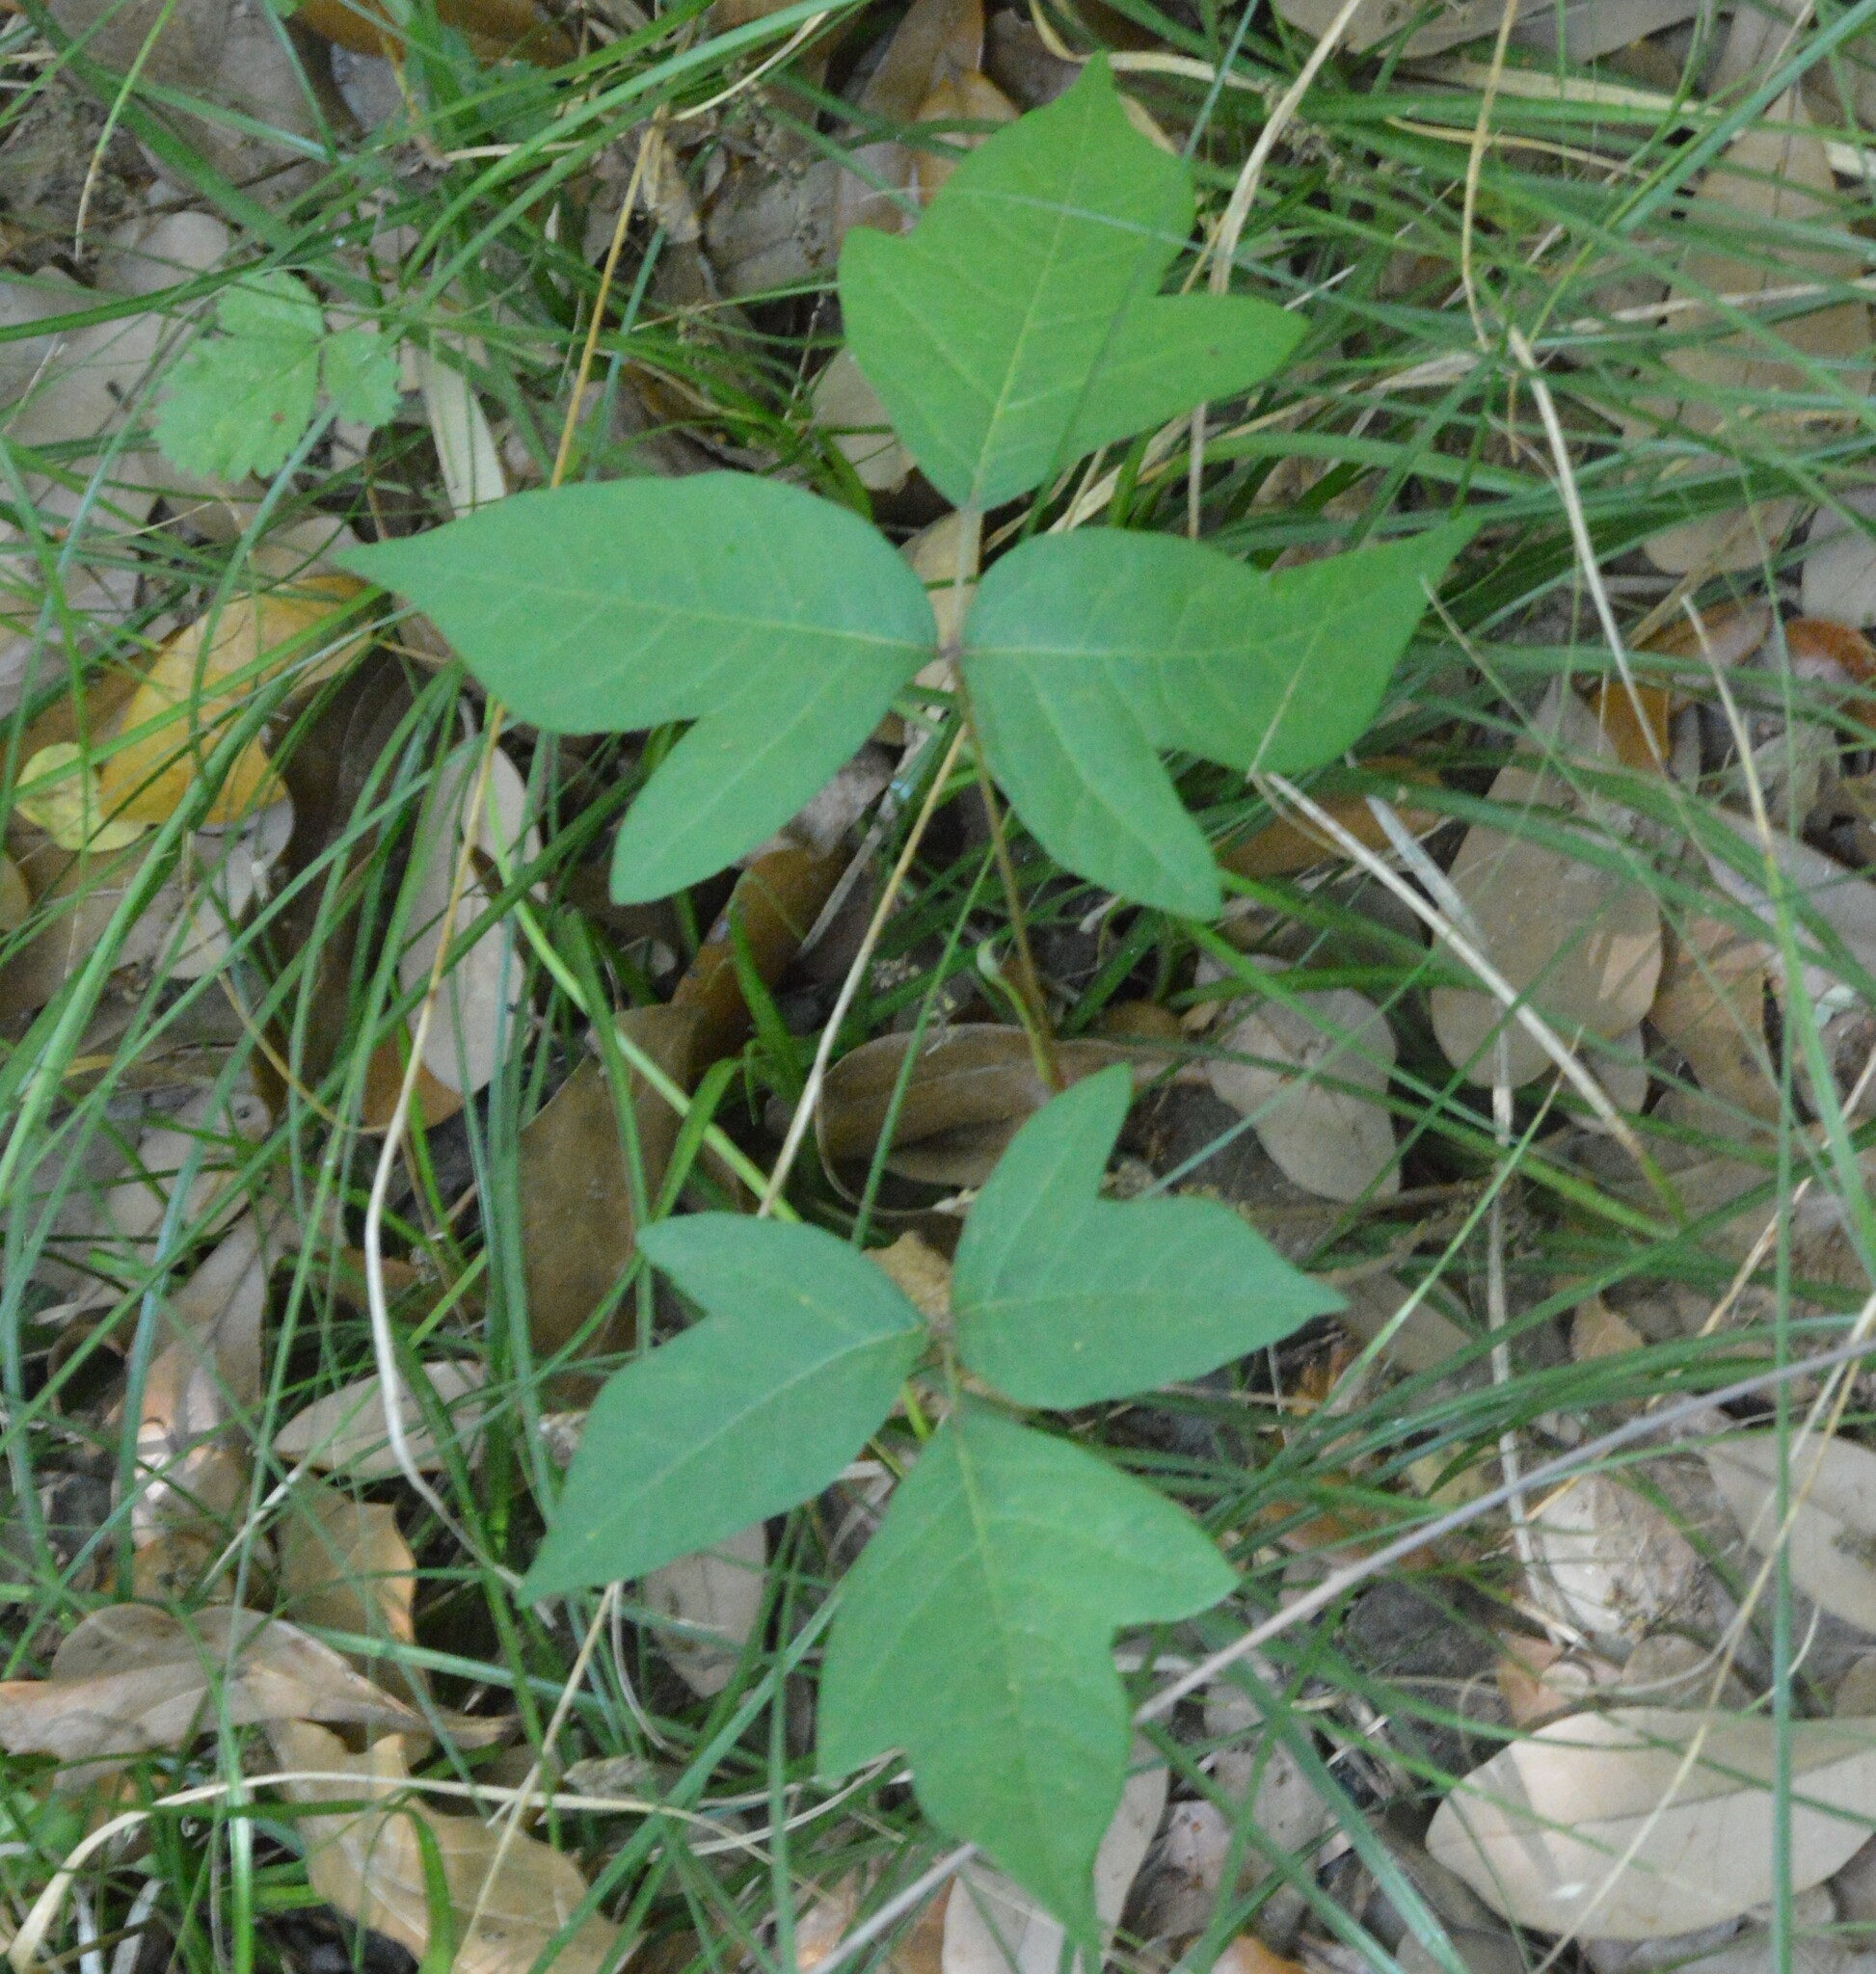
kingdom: Plantae
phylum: Tracheophyta
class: Magnoliopsida
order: Sapindales
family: Anacardiaceae
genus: Toxicodendron
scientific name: Toxicodendron radicans
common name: Poison ivy
